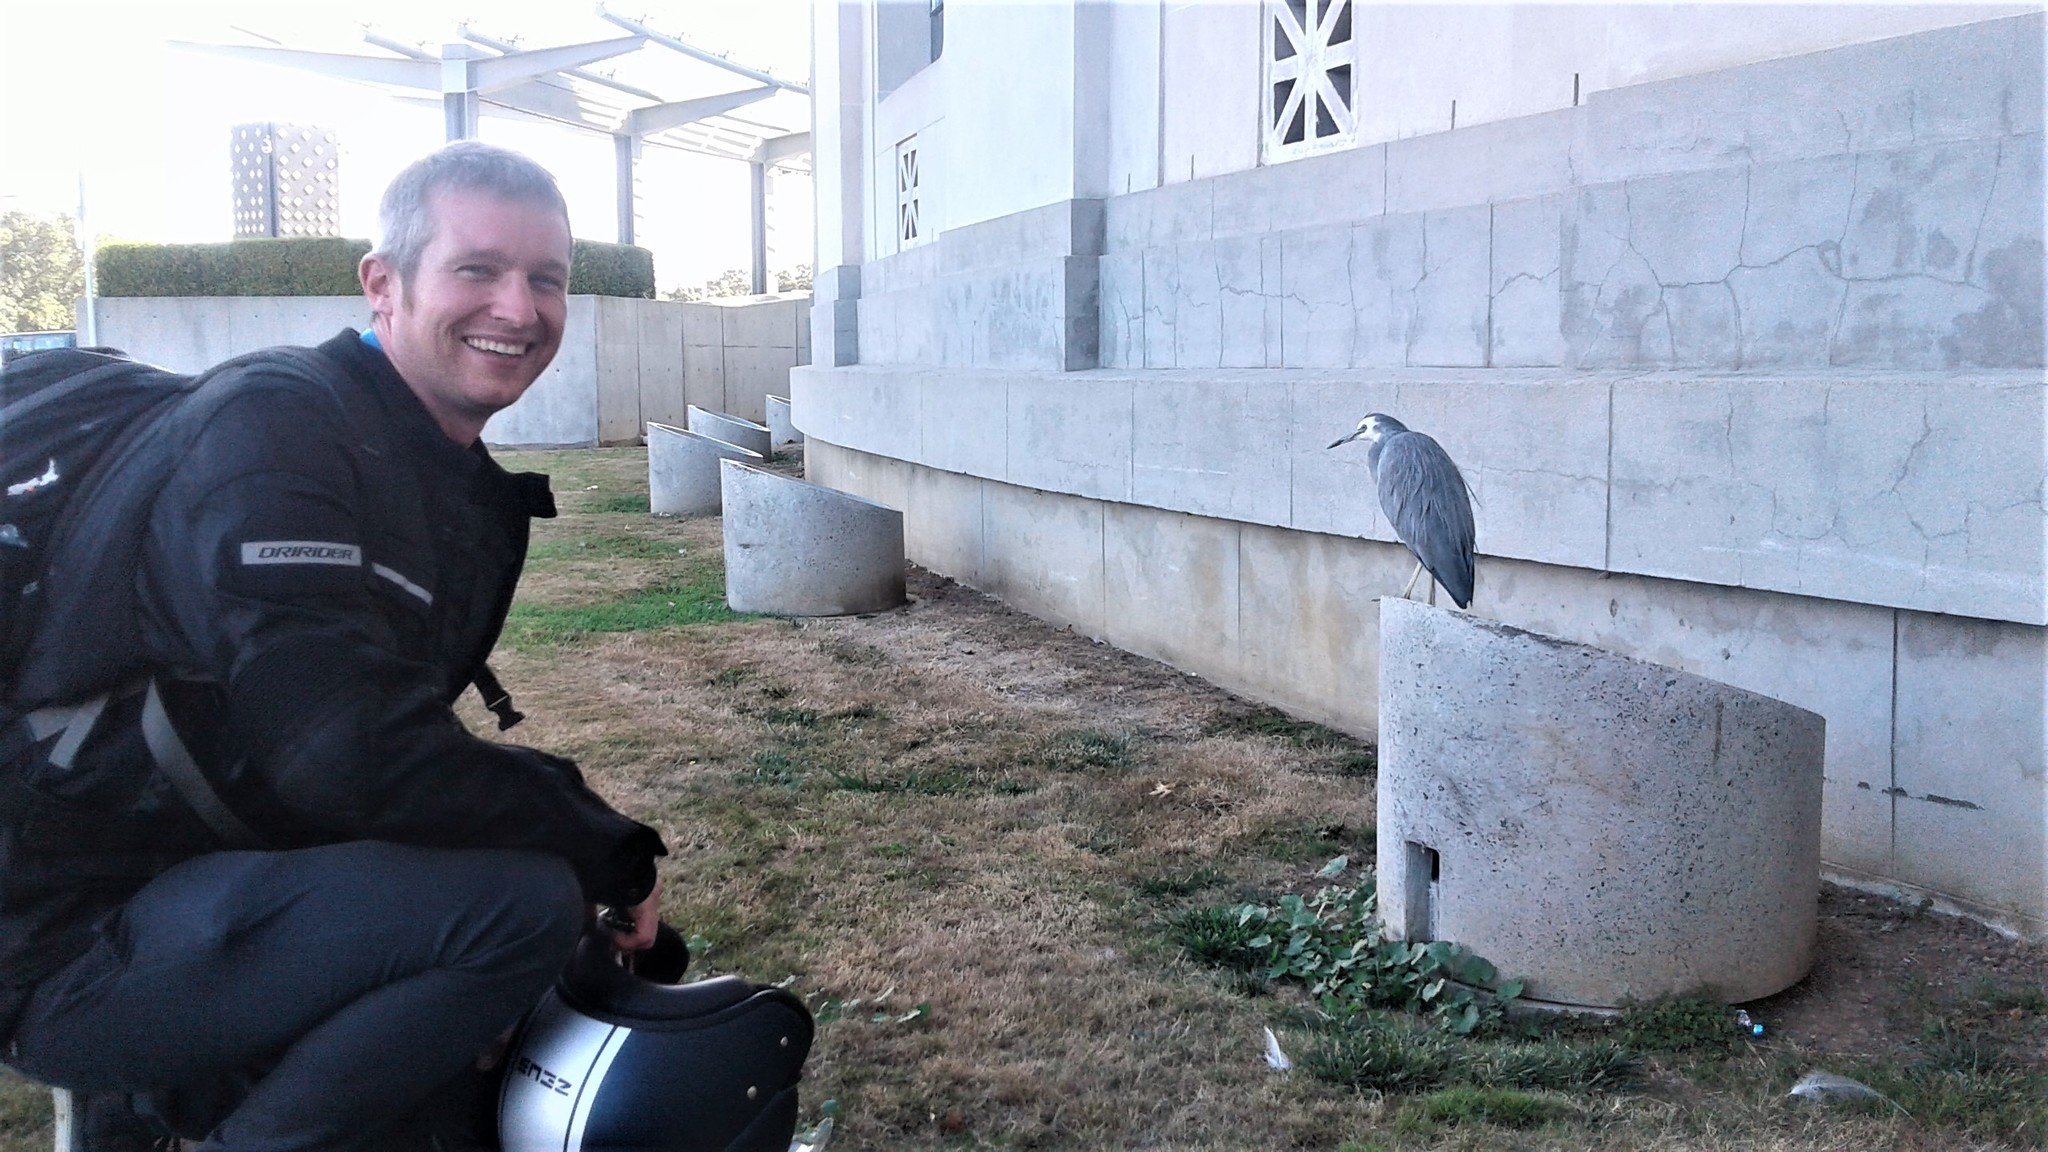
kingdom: Animalia
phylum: Chordata
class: Aves
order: Pelecaniformes
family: Ardeidae
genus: Egretta
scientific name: Egretta novaehollandiae
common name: White-faced heron
